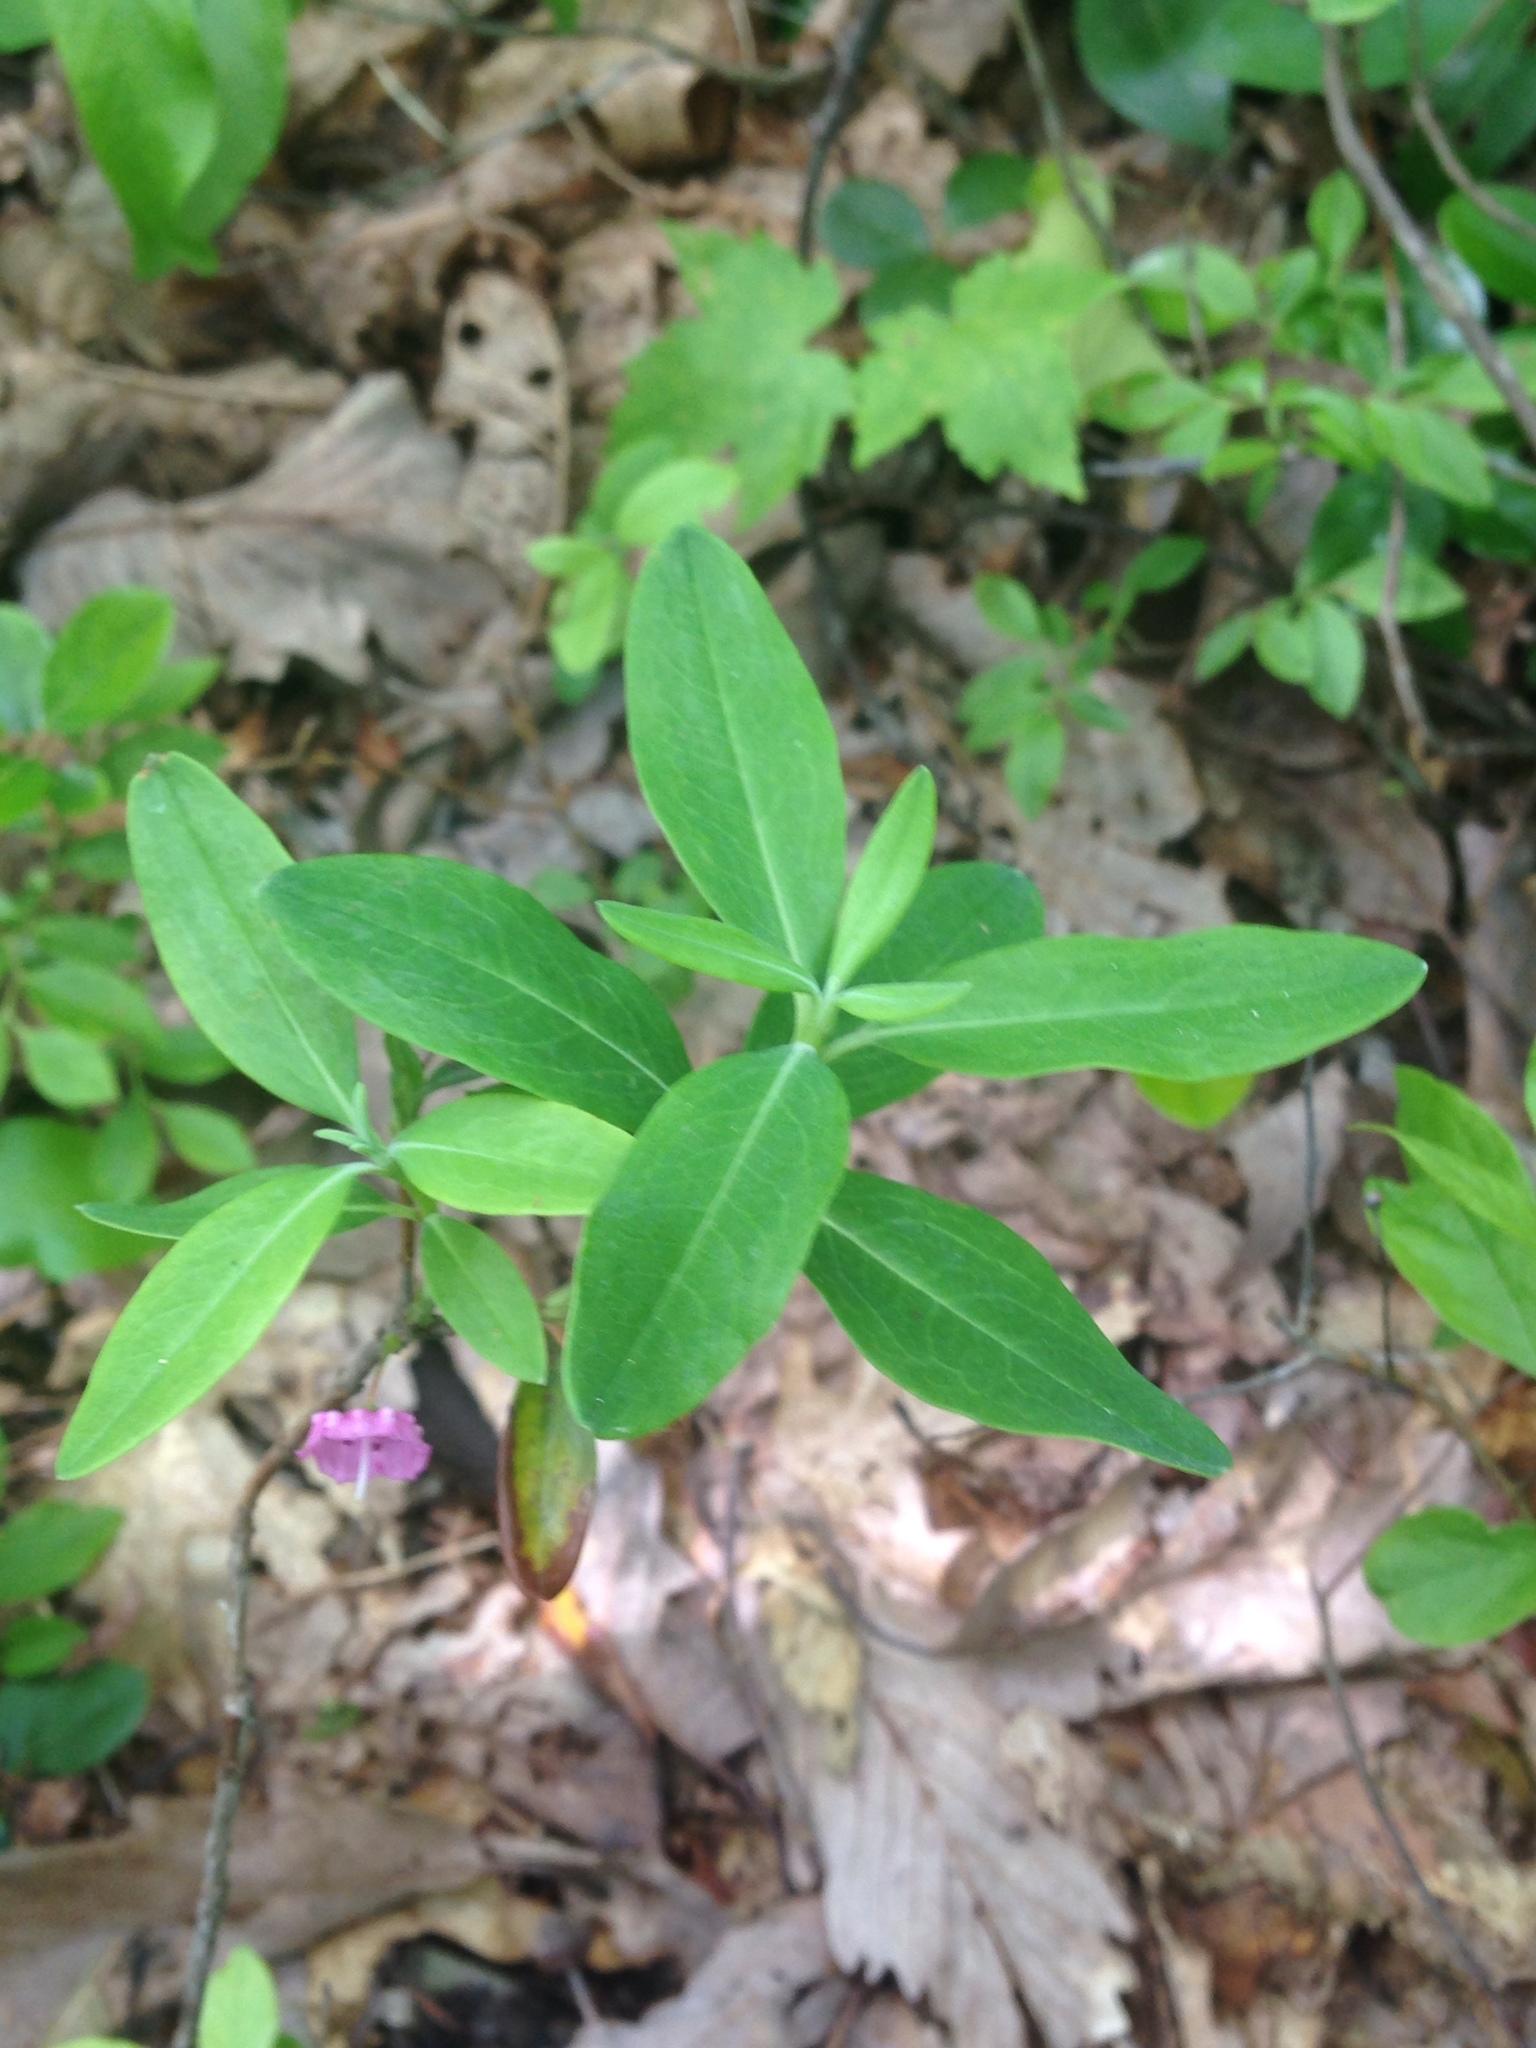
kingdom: Plantae
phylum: Tracheophyta
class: Magnoliopsida
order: Ericales
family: Ericaceae
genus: Kalmia
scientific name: Kalmia angustifolia
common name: Sheep-laurel
